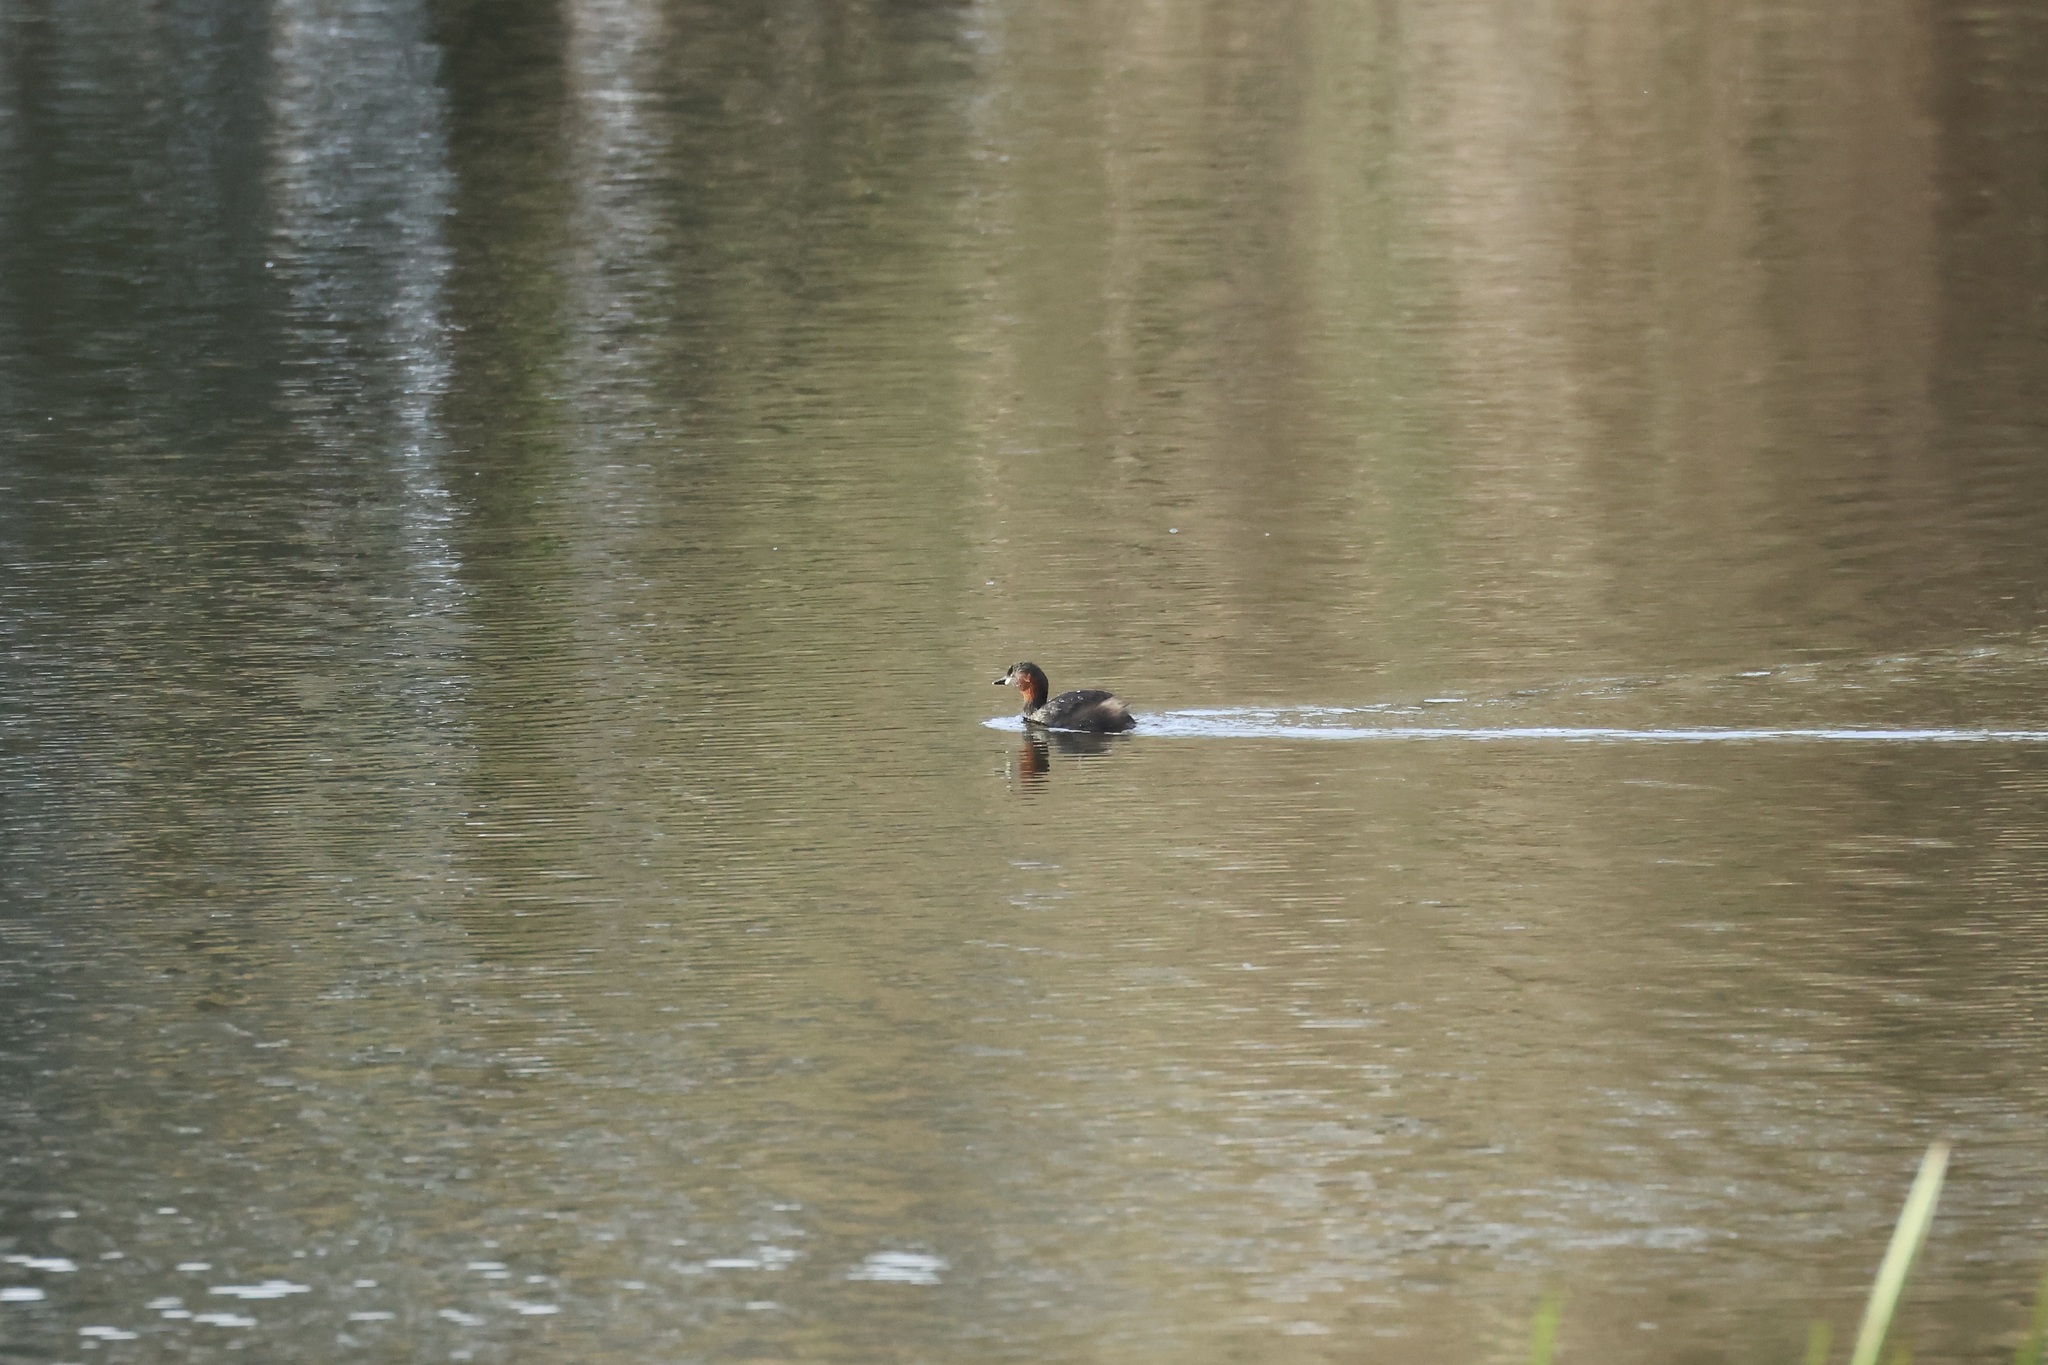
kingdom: Animalia
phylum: Chordata
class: Aves
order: Podicipediformes
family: Podicipedidae
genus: Tachybaptus
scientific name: Tachybaptus ruficollis
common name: Little grebe
